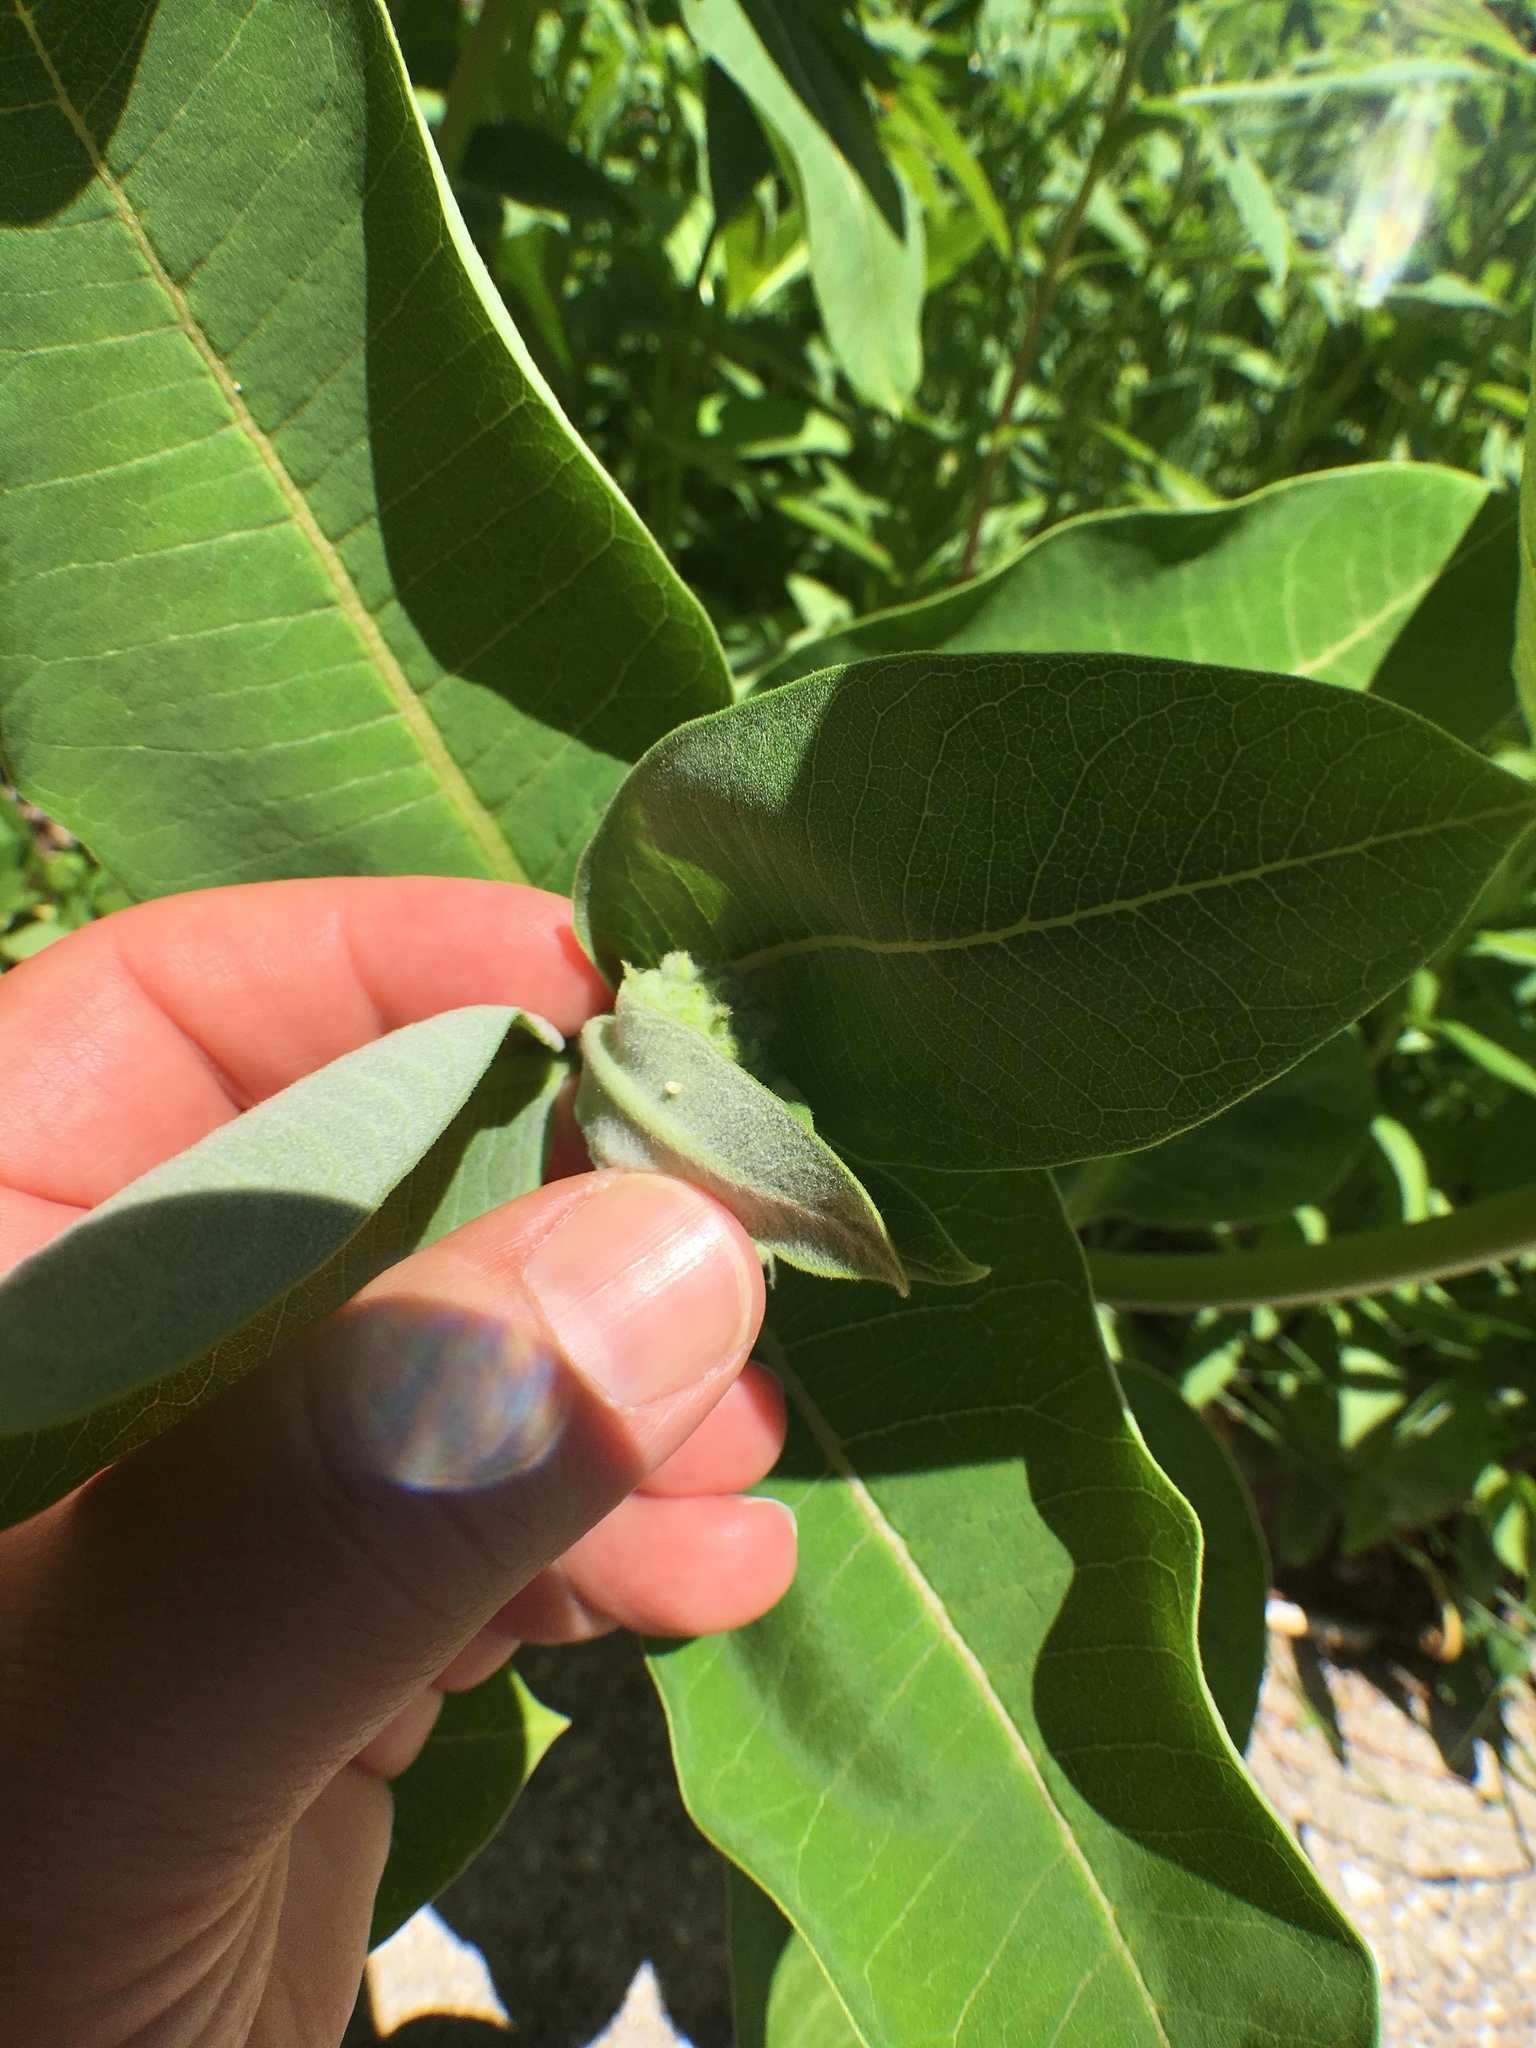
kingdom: Animalia
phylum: Arthropoda
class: Insecta
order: Lepidoptera
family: Nymphalidae
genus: Danaus
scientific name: Danaus plexippus
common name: Monarch
